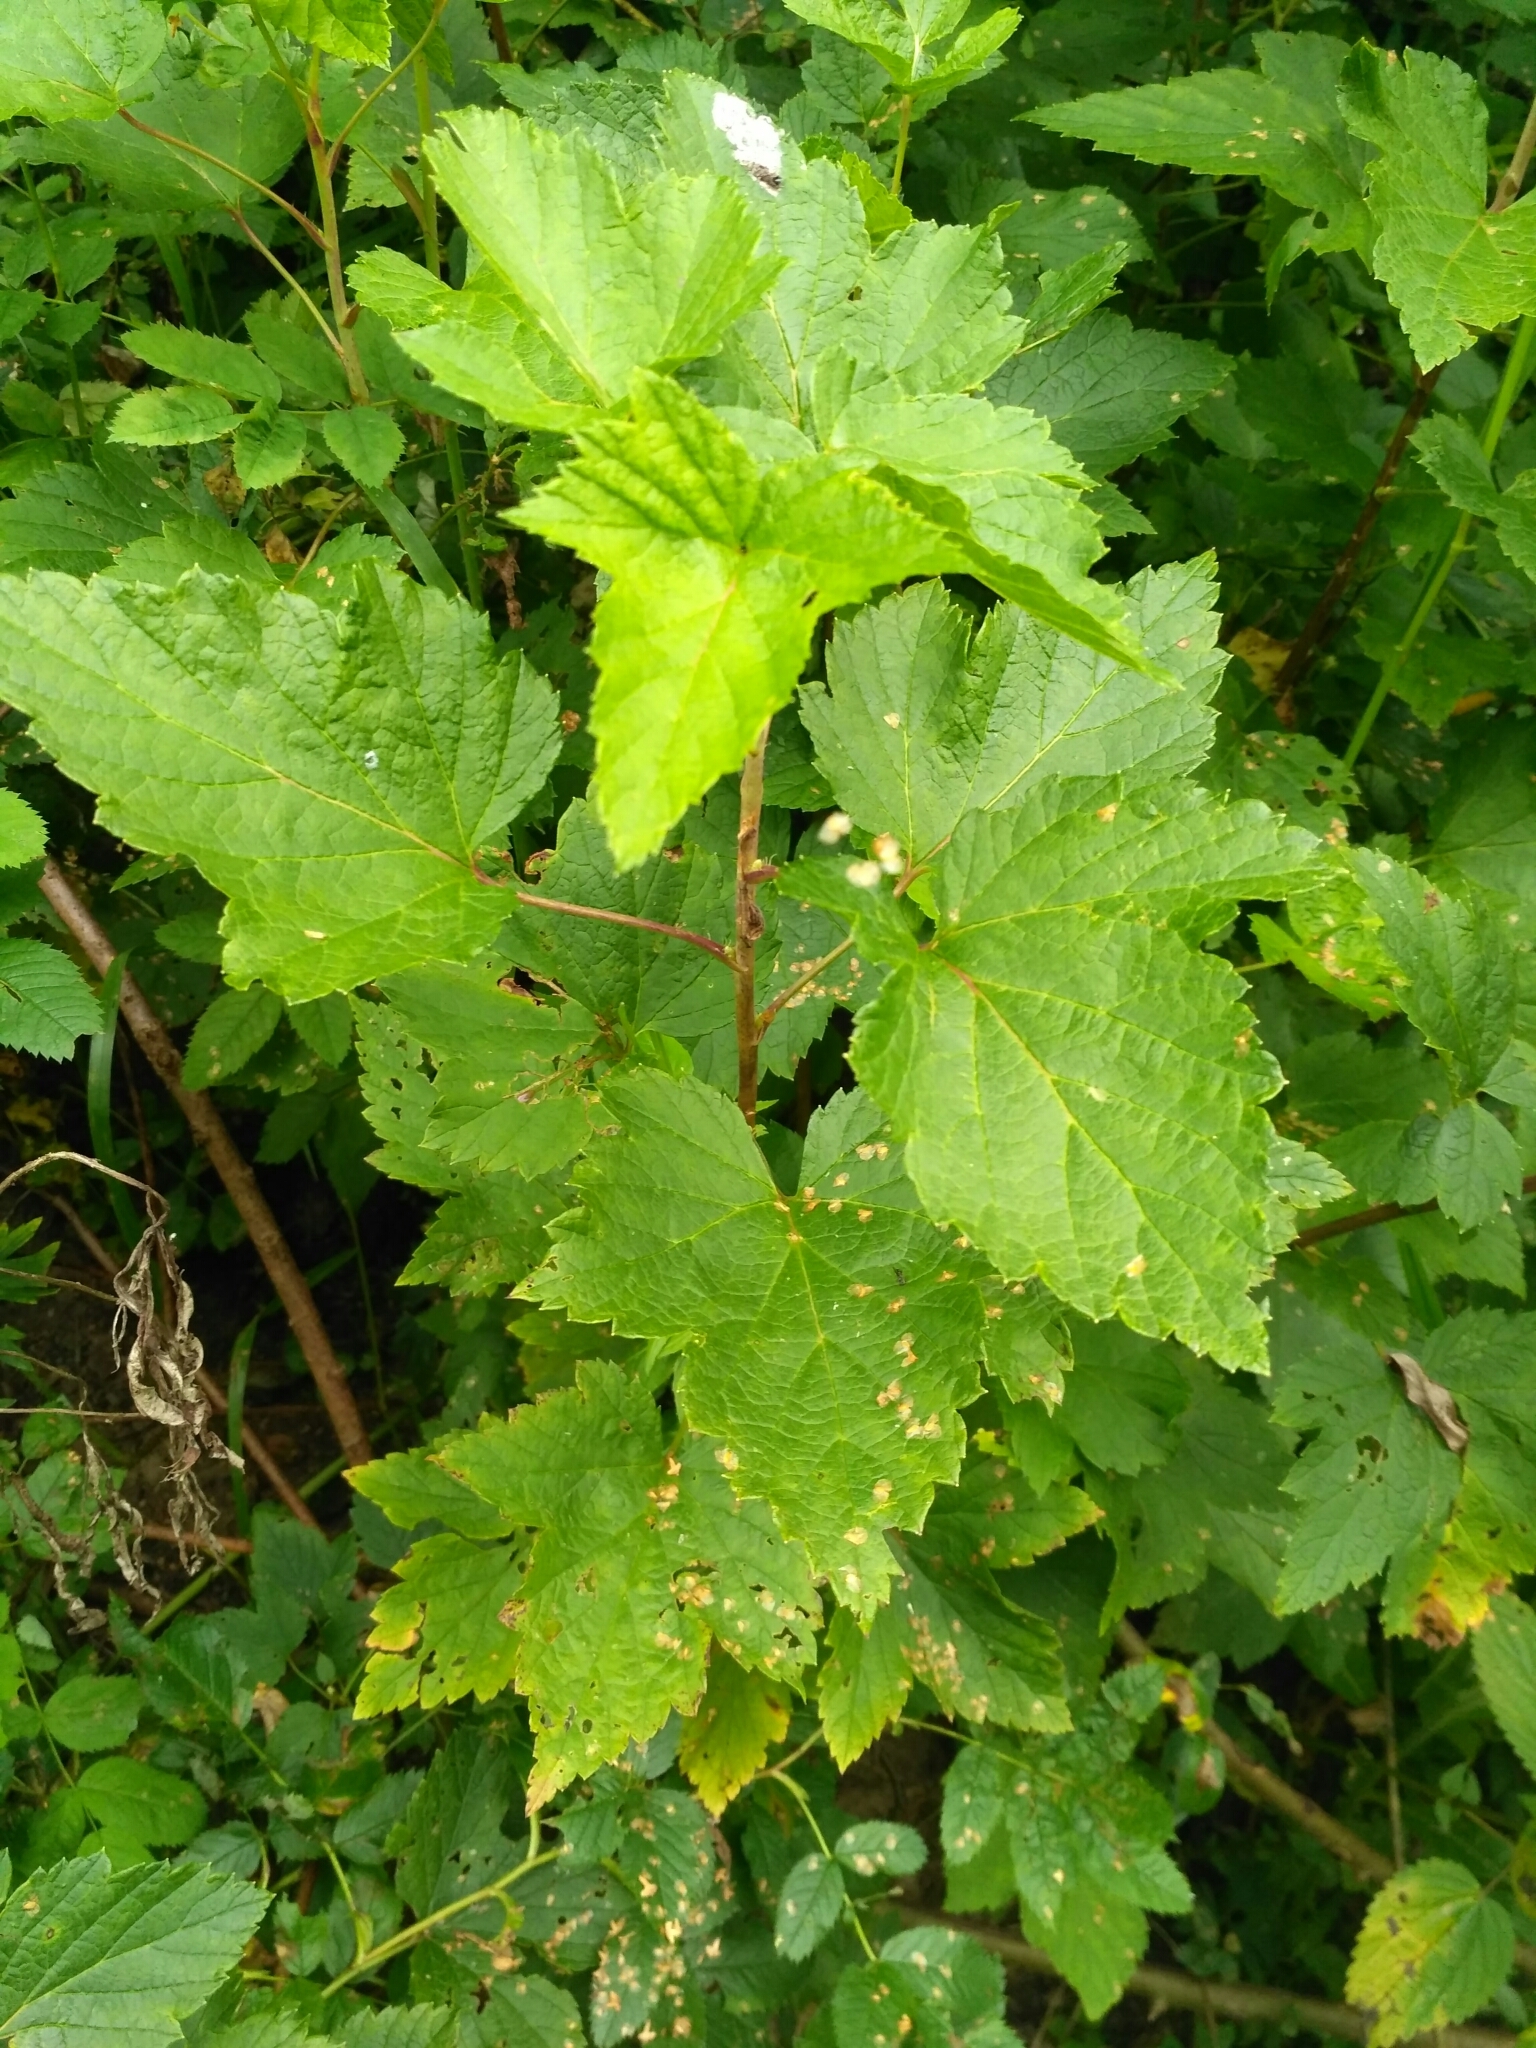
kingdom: Plantae
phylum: Tracheophyta
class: Magnoliopsida
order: Saxifragales
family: Grossulariaceae
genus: Ribes
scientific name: Ribes nigrum
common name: Black currant
